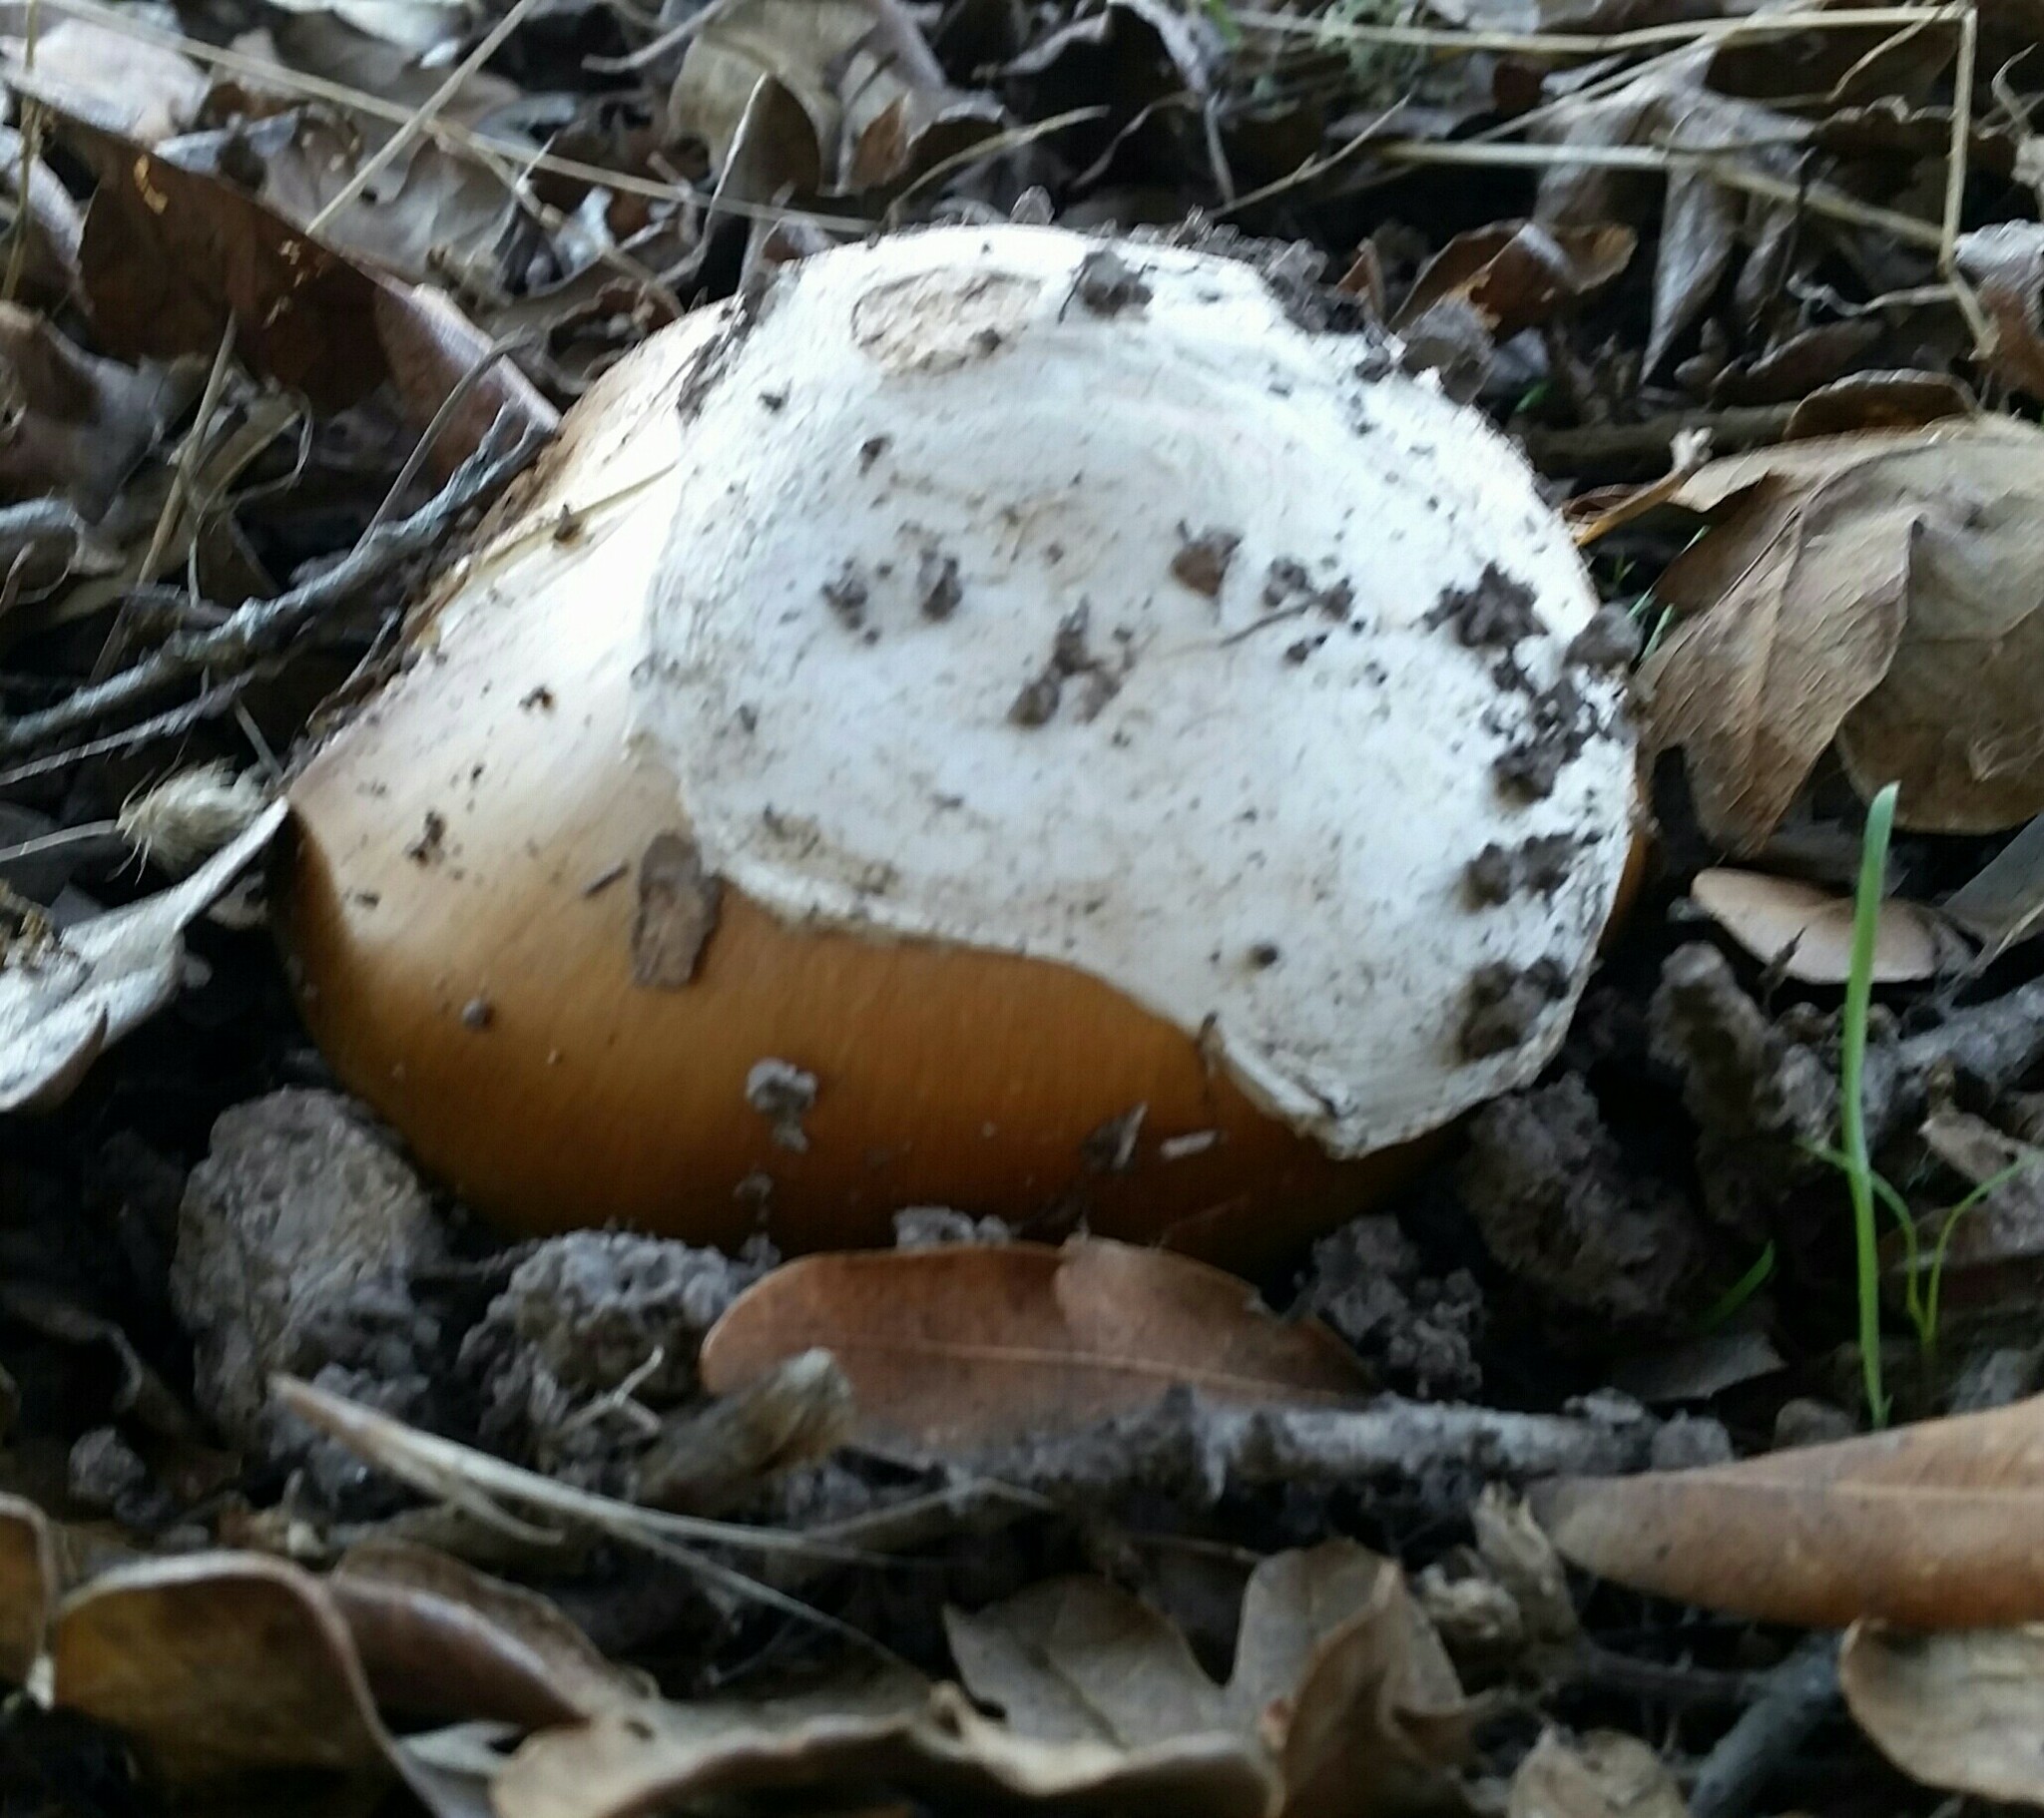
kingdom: Fungi
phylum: Basidiomycota
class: Agaricomycetes
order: Agaricales
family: Amanitaceae
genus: Amanita
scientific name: Amanita calyptroderma
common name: Coccora
